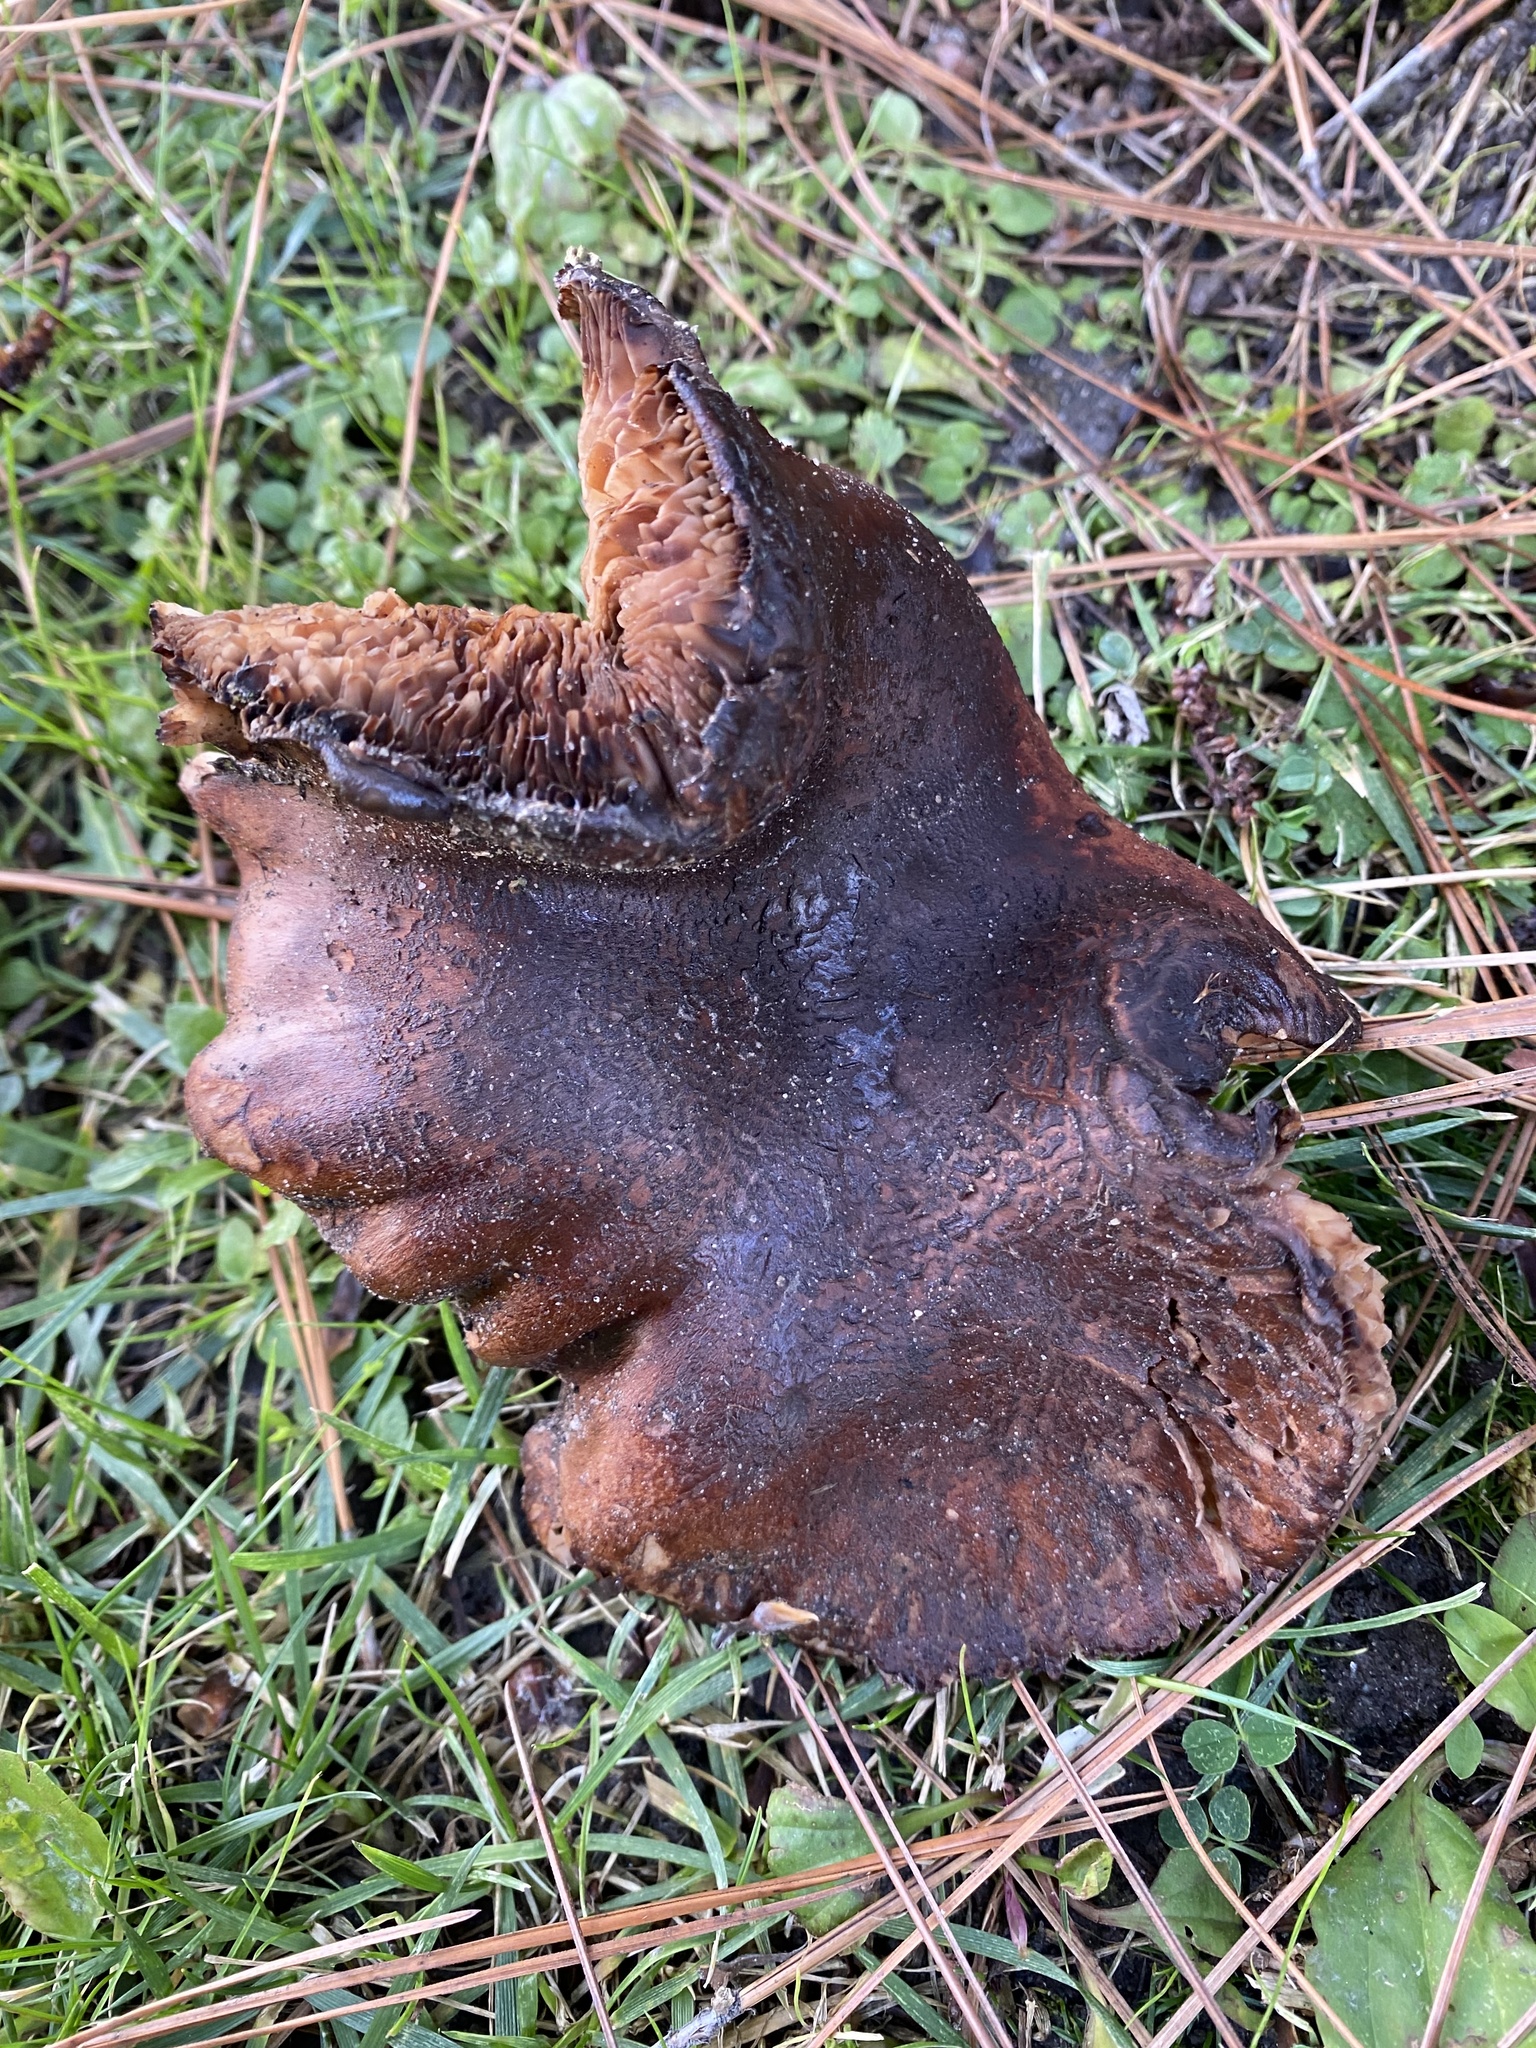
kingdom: Fungi
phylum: Basidiomycota
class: Agaricomycetes
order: Agaricales
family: Tricholomataceae
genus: Tricholoma
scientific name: Tricholoma fracticum
